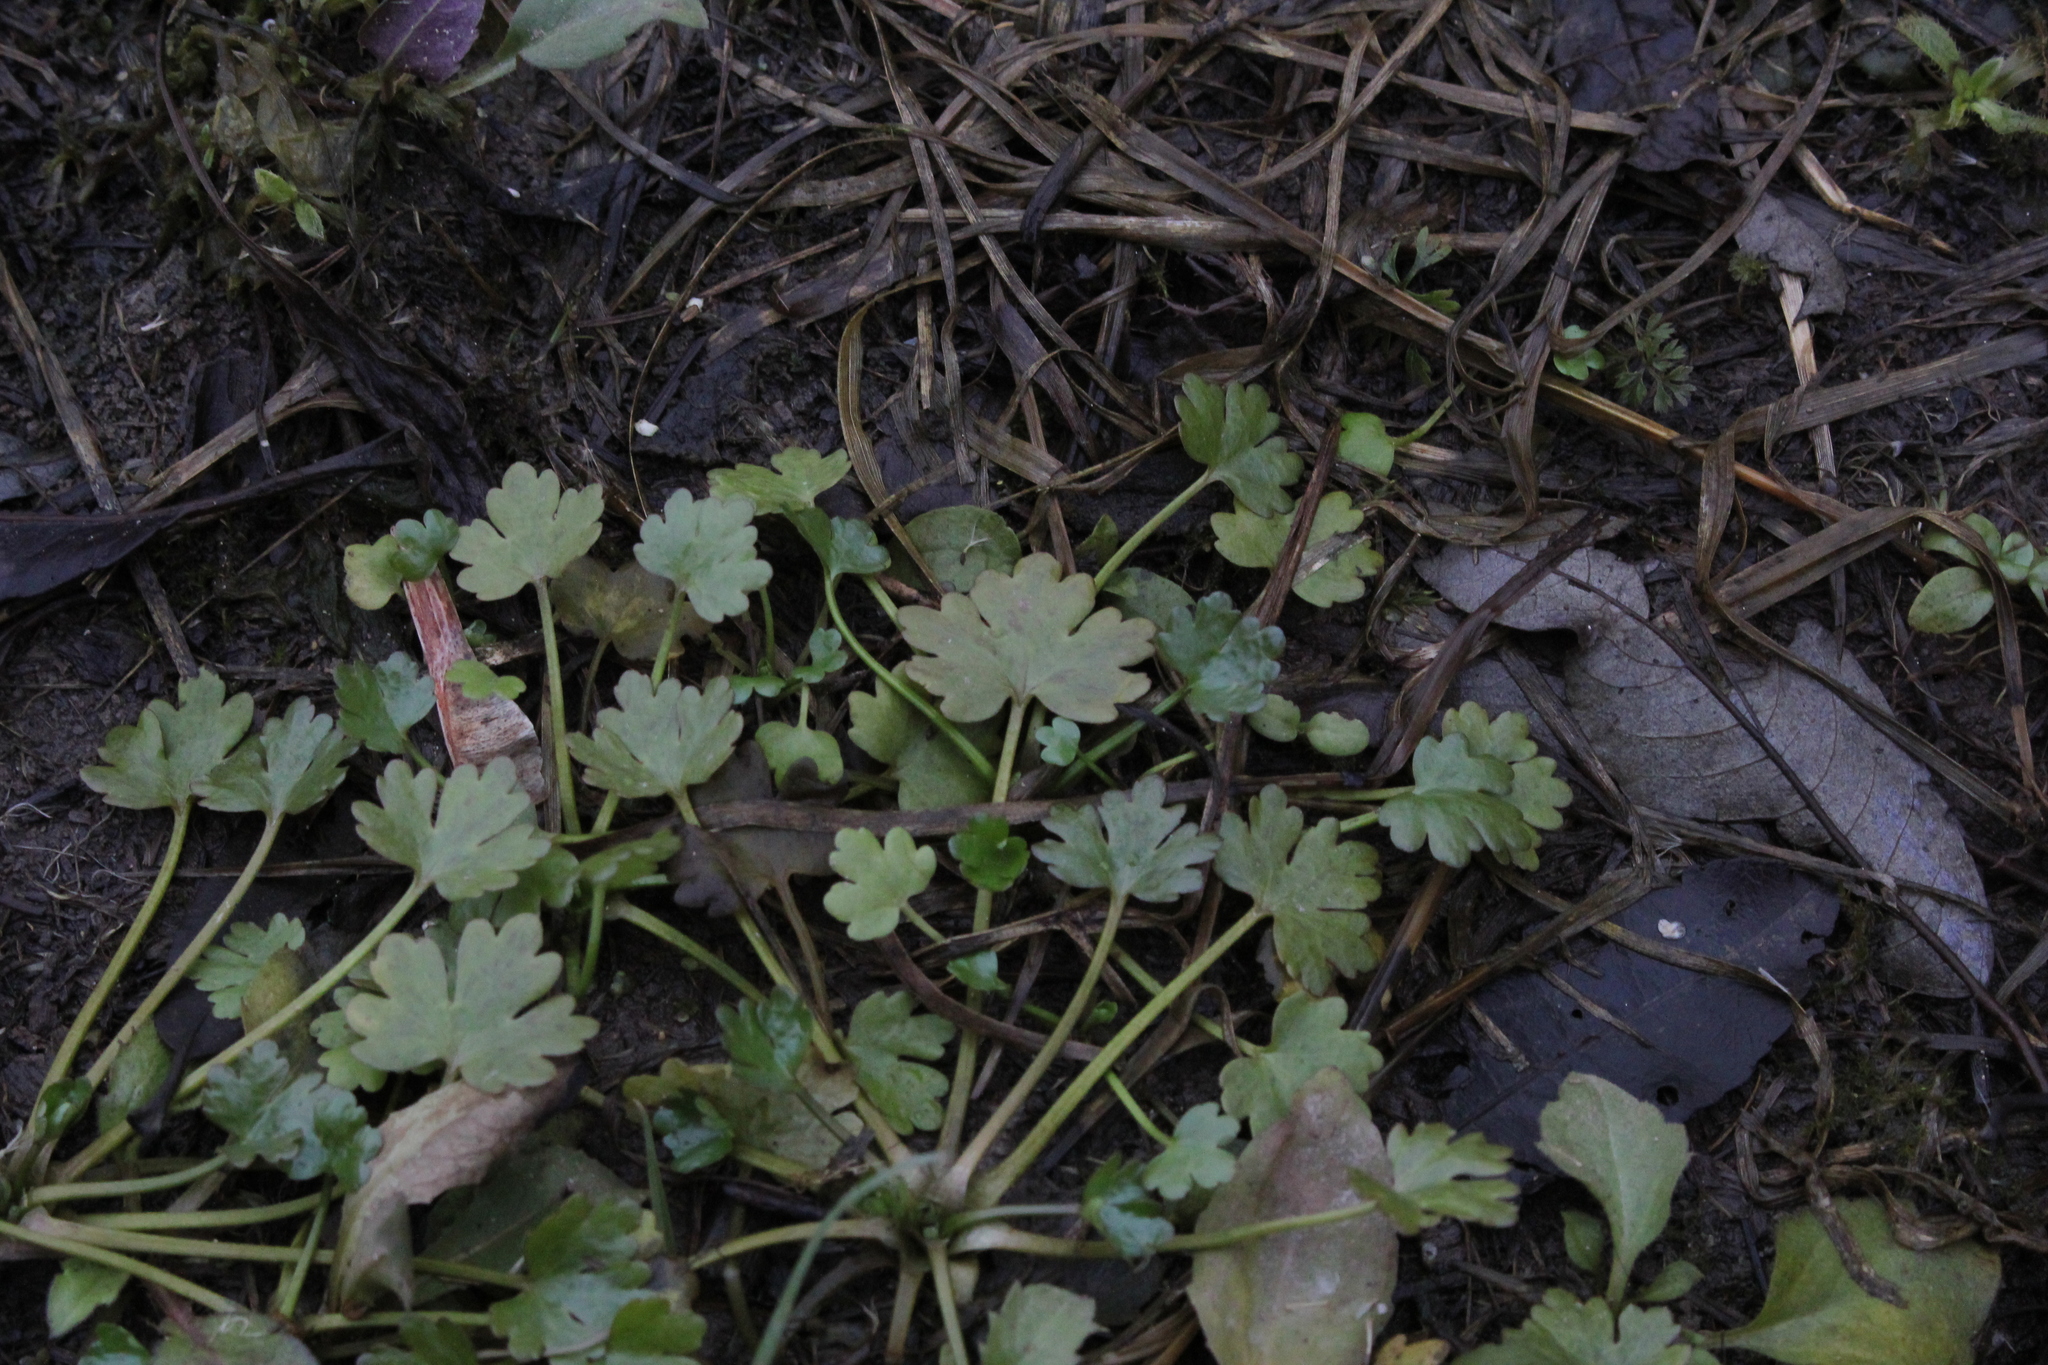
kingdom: Plantae
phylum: Tracheophyta
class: Magnoliopsida
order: Ranunculales
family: Ranunculaceae
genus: Ranunculus
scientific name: Ranunculus sceleratus
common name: Celery-leaved buttercup
